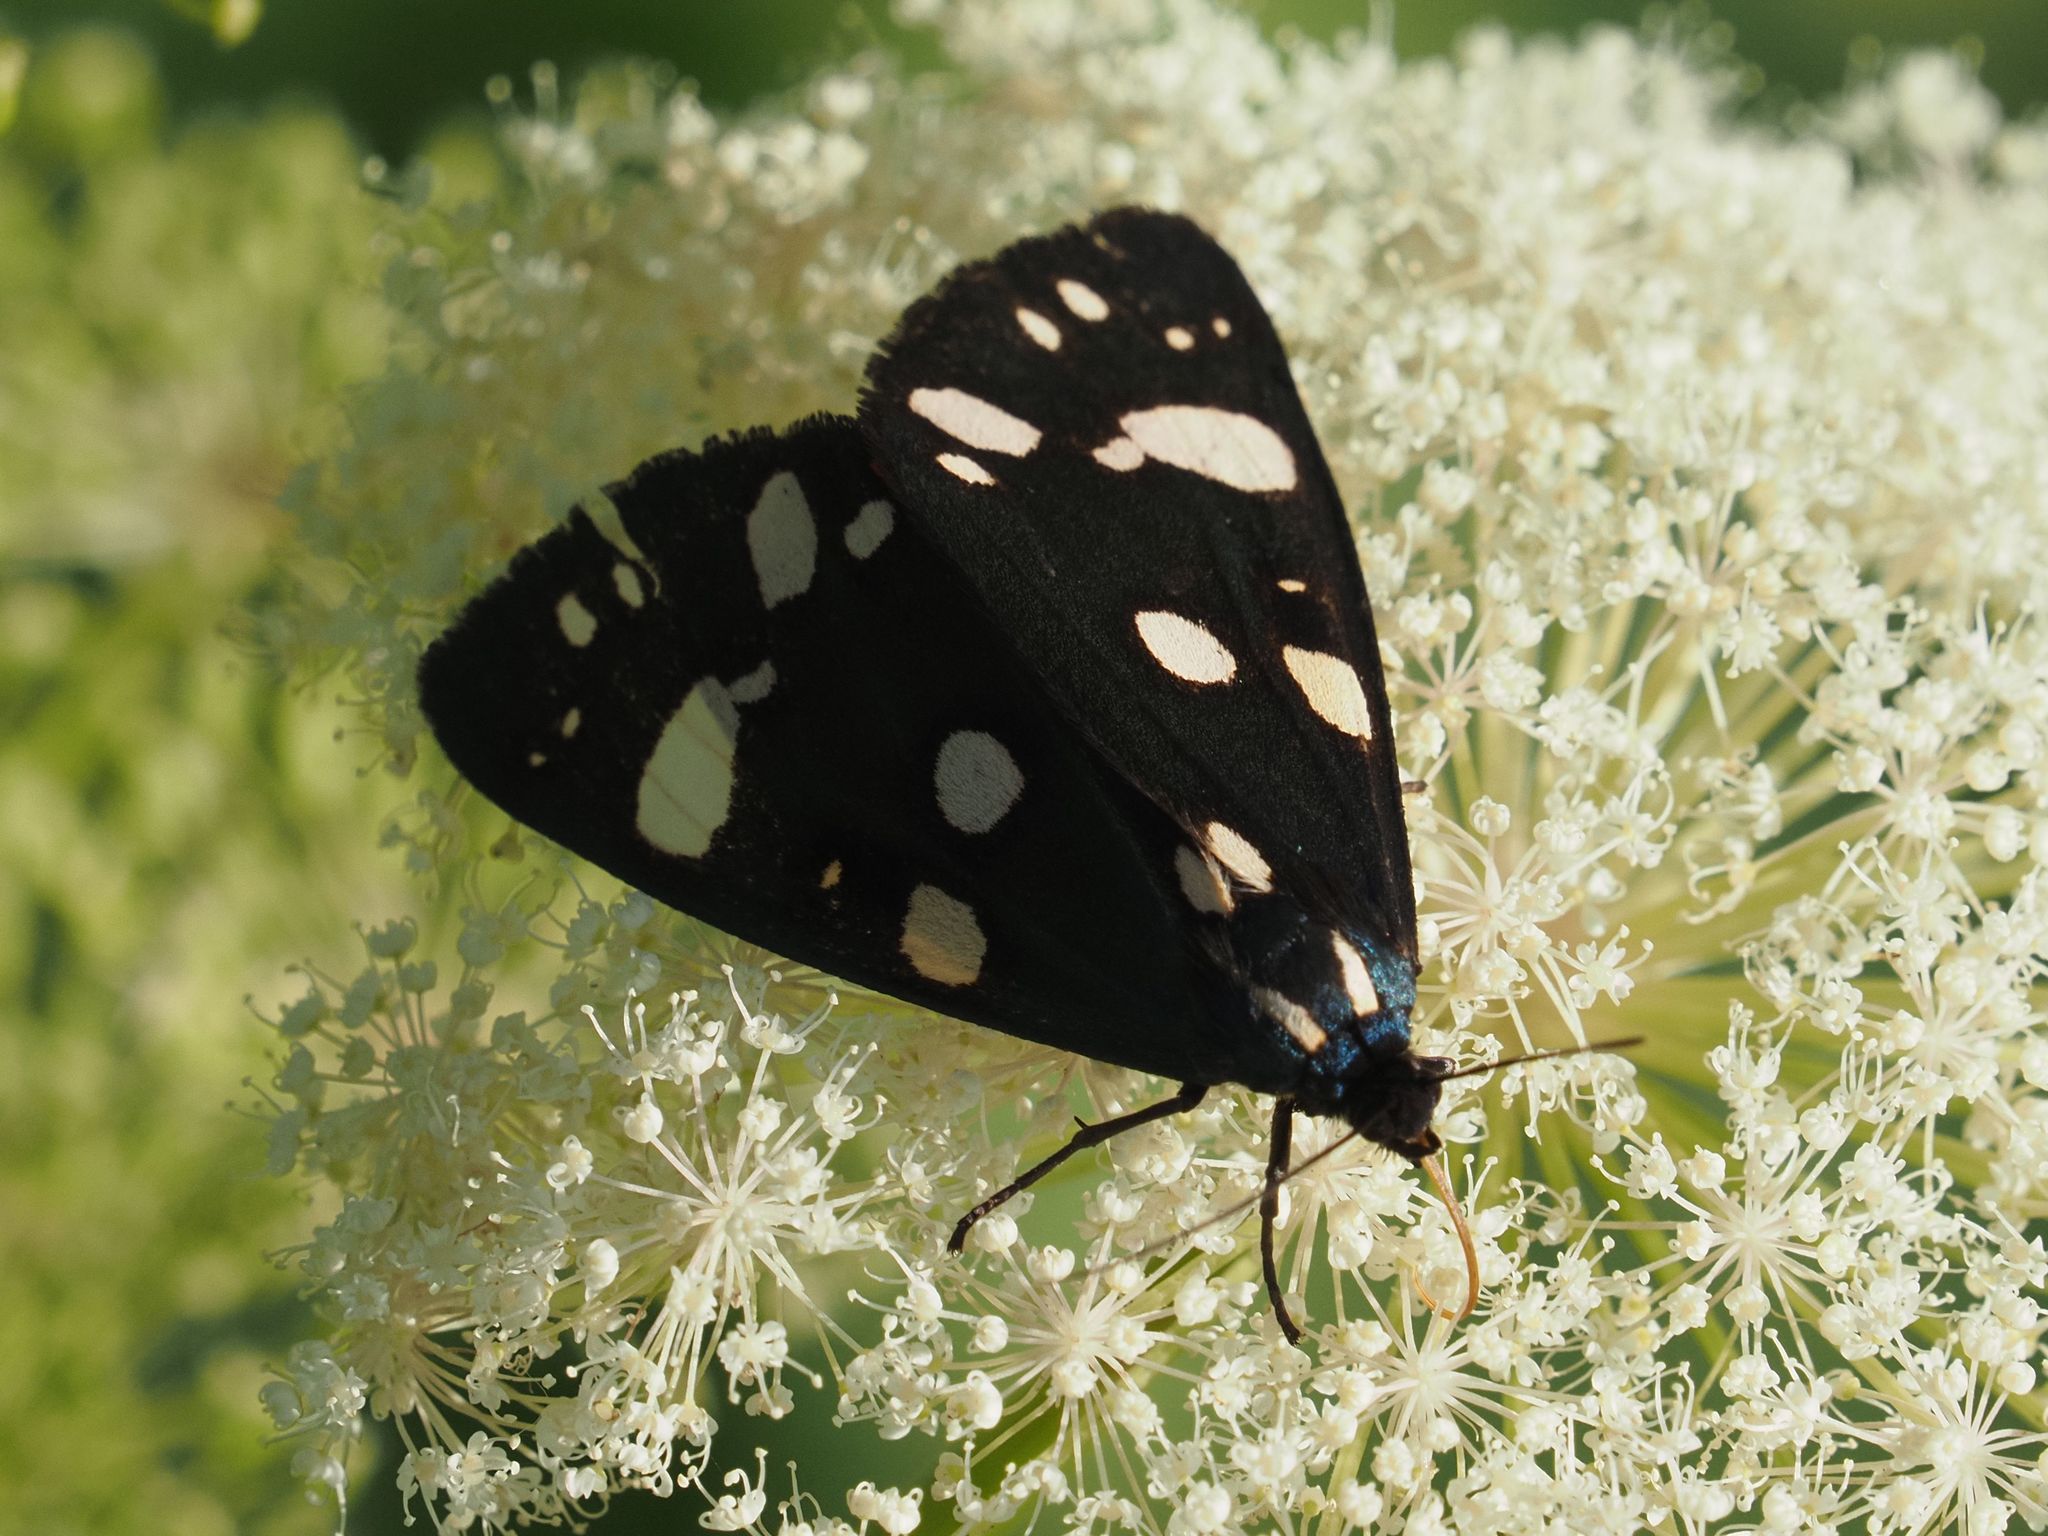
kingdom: Animalia
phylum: Arthropoda
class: Insecta
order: Lepidoptera
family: Erebidae
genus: Callimorpha
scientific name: Callimorpha dominula
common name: Scarlet tiger
